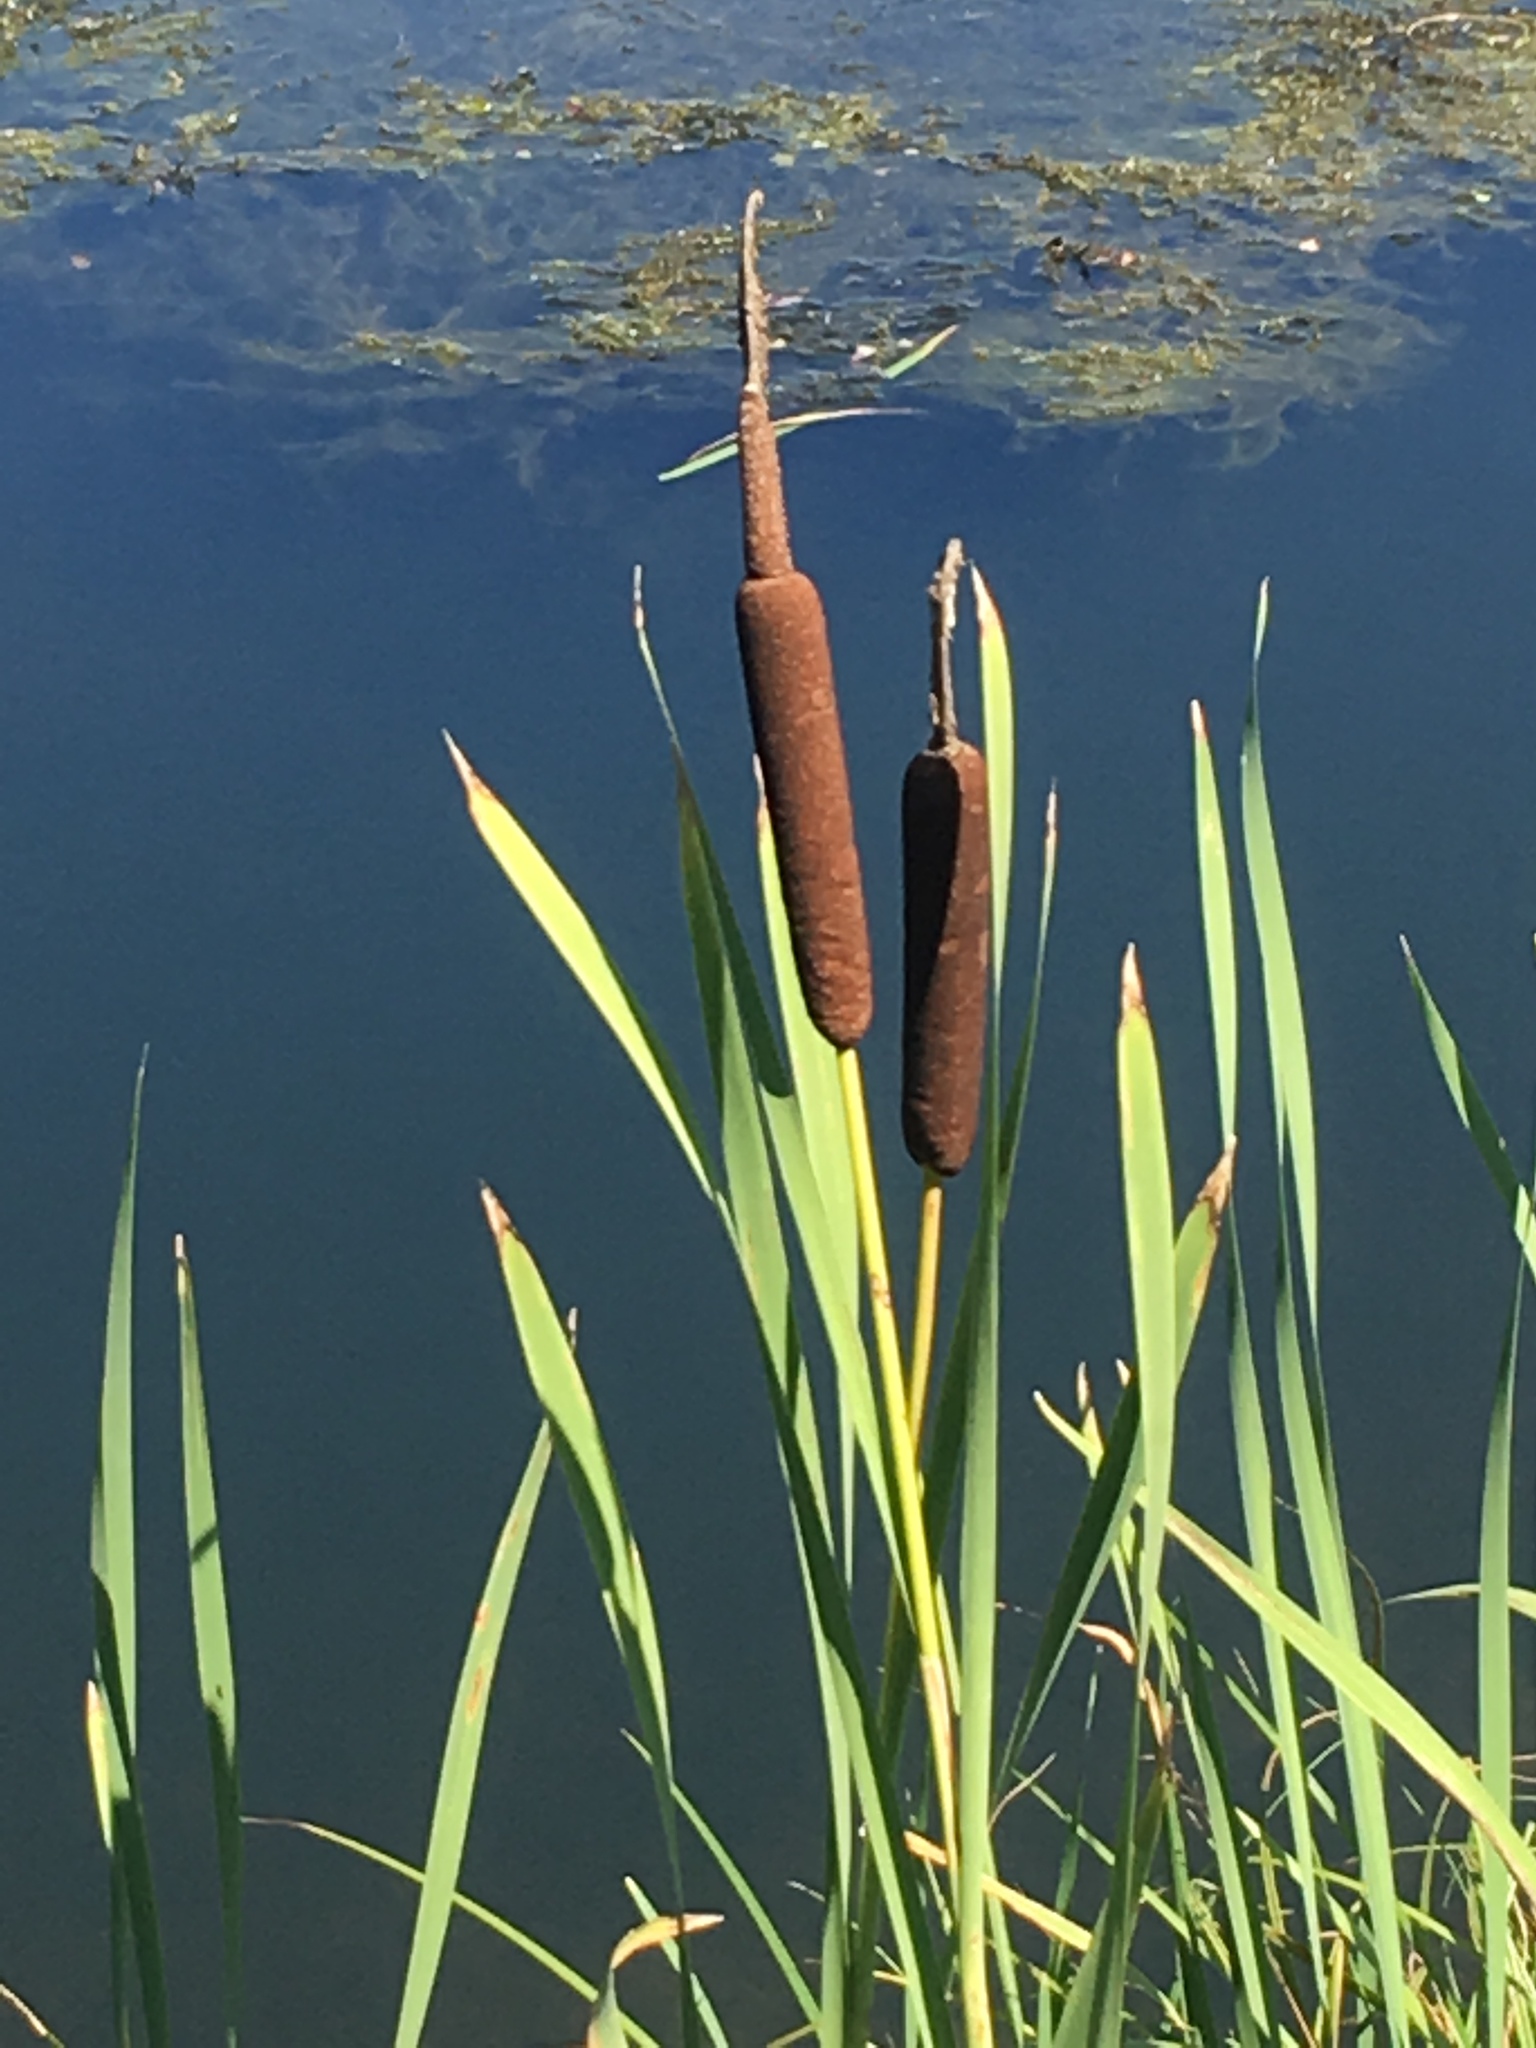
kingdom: Plantae
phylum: Tracheophyta
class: Liliopsida
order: Poales
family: Typhaceae
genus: Typha
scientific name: Typha latifolia
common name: Broadleaf cattail
